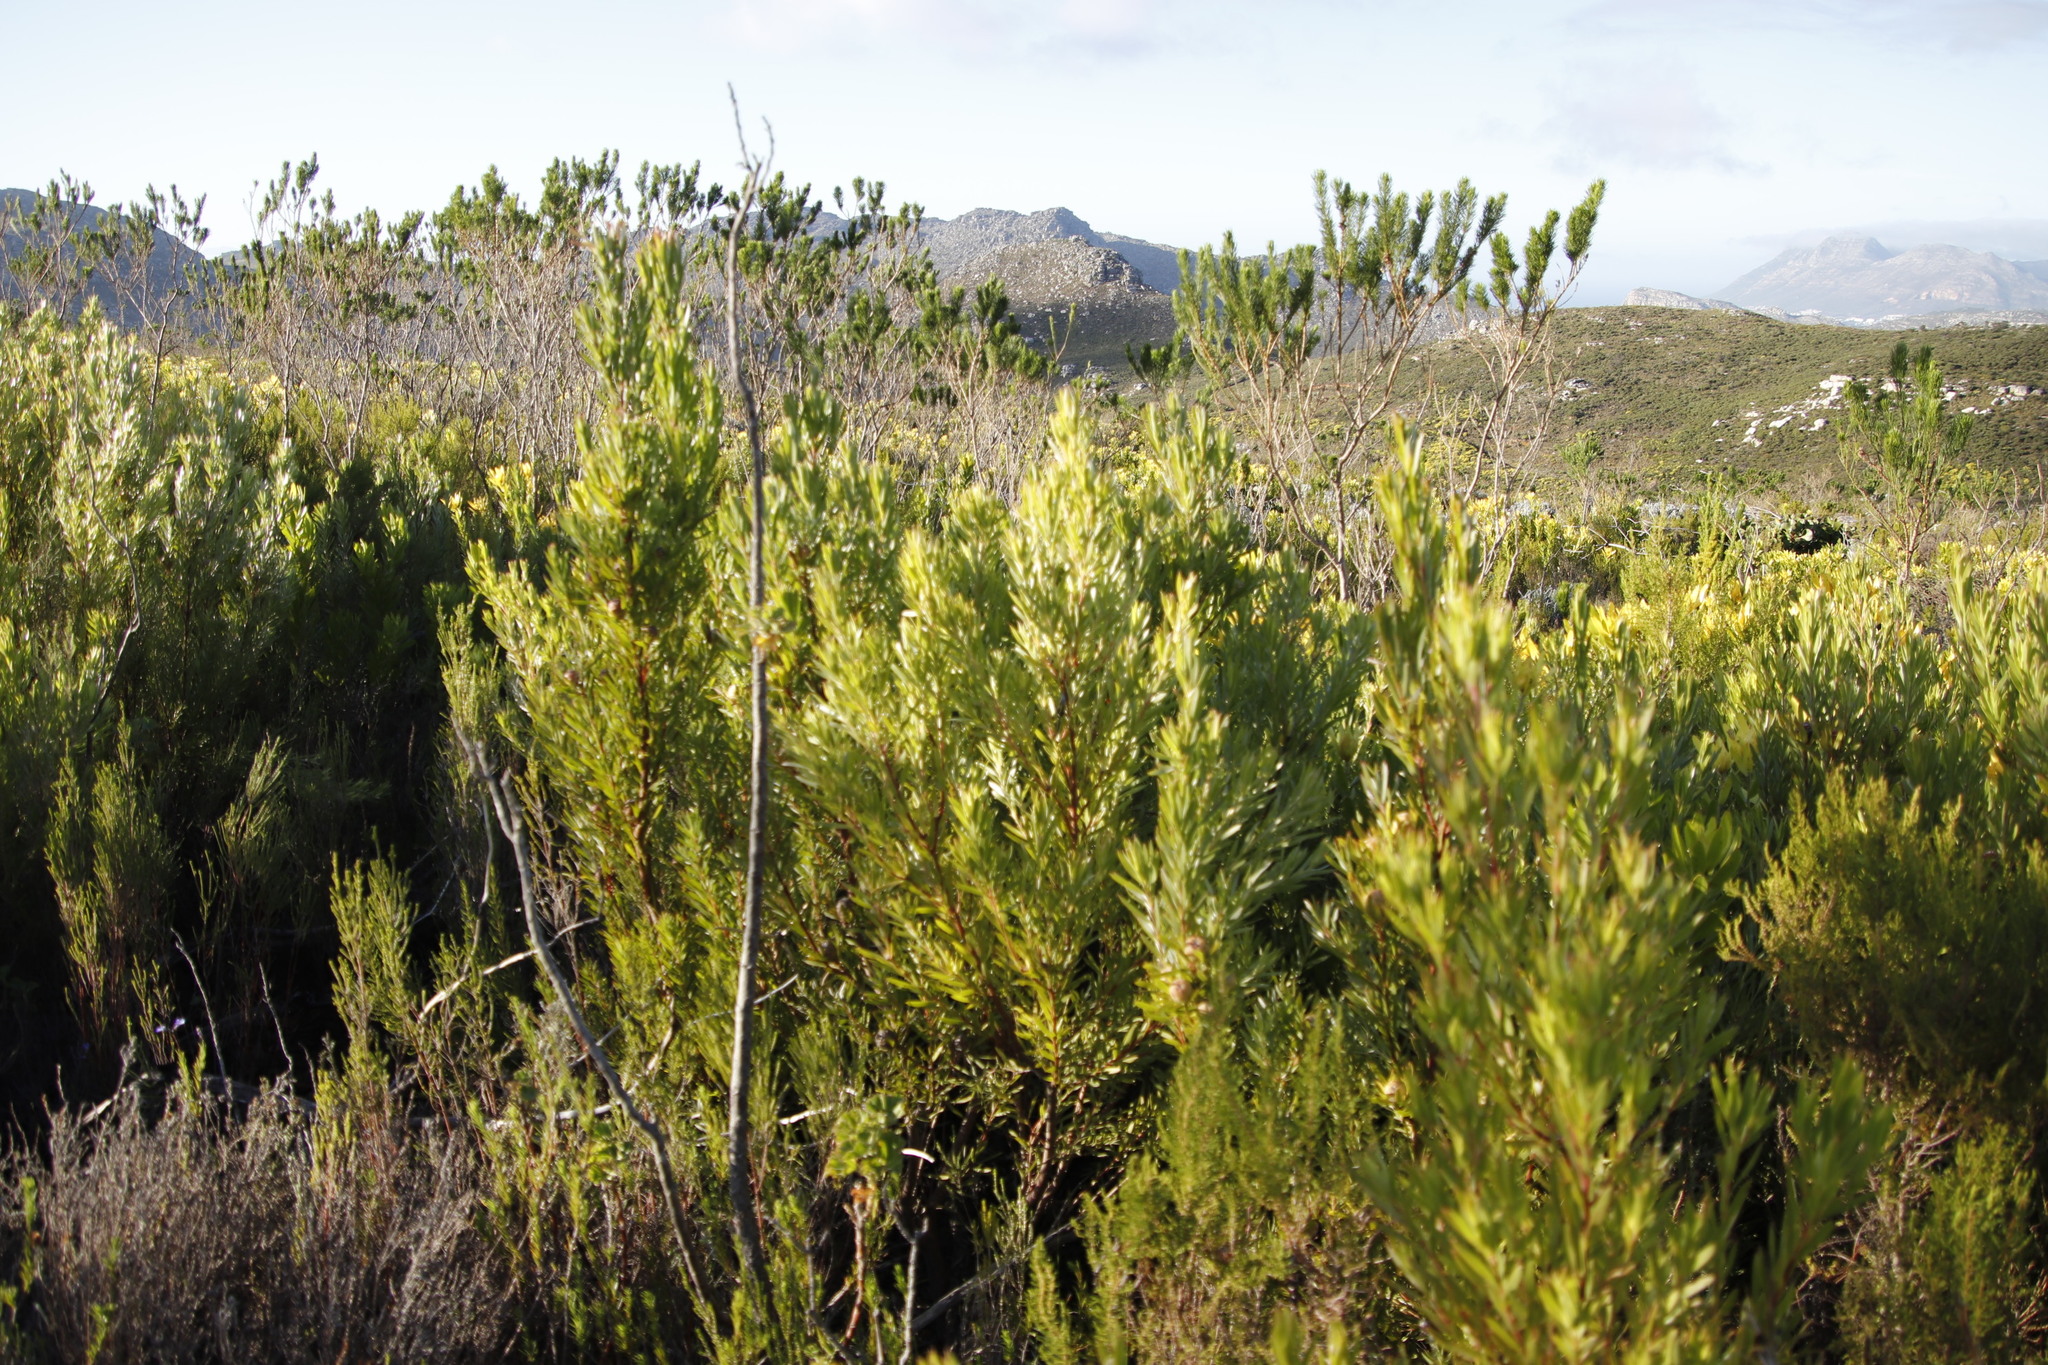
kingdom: Plantae
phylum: Tracheophyta
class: Magnoliopsida
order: Proteales
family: Proteaceae
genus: Leucadendron
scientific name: Leucadendron xanthoconus
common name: Sickle-leaf conebush
